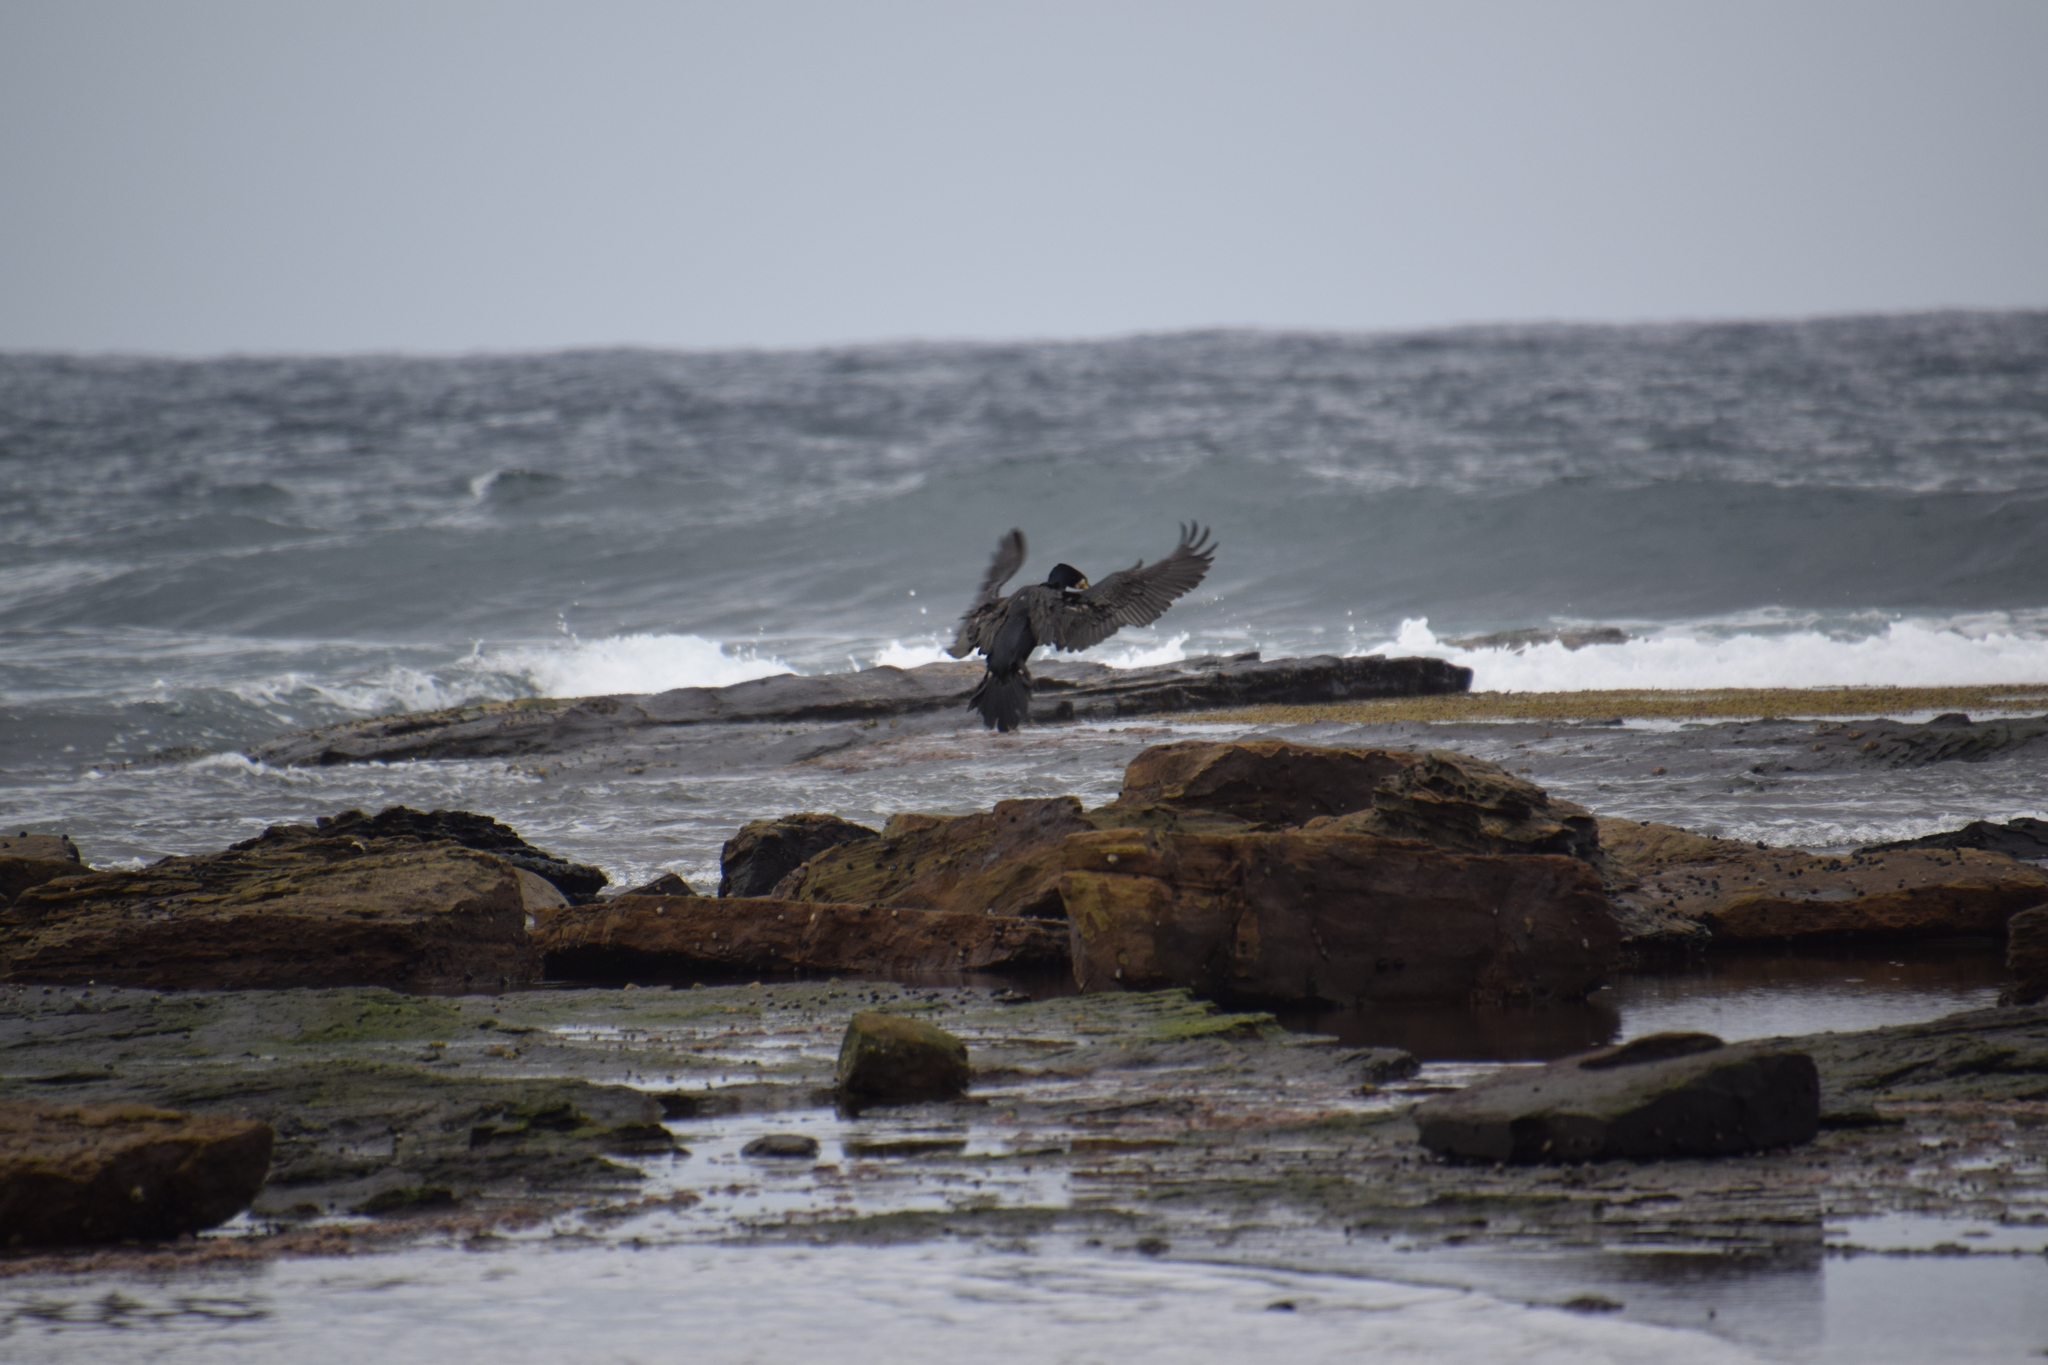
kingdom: Animalia
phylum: Chordata
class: Aves
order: Suliformes
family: Phalacrocoracidae
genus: Phalacrocorax
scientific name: Phalacrocorax carbo
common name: Great cormorant
